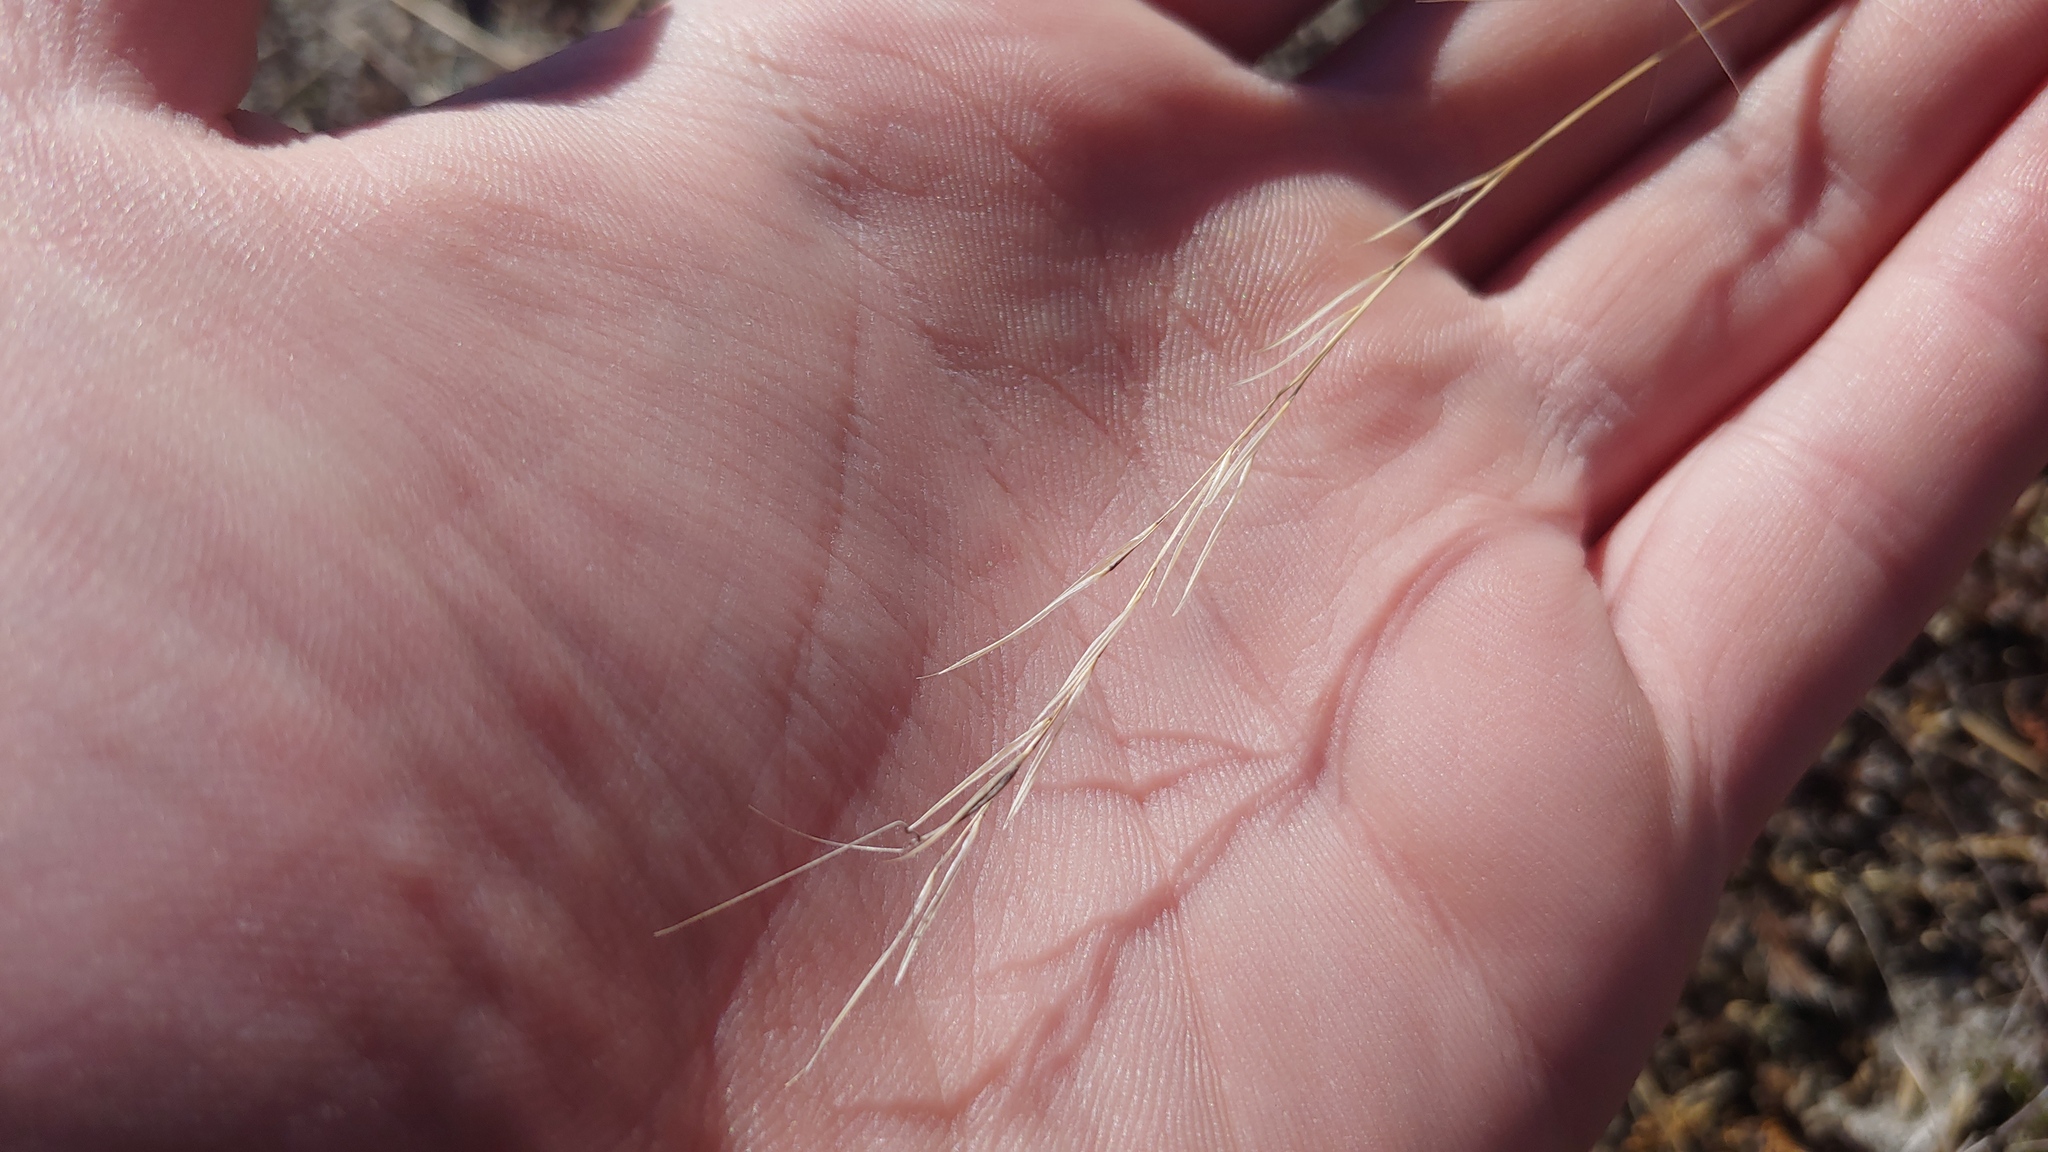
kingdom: Plantae
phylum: Tracheophyta
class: Liliopsida
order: Poales
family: Poaceae
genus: Aristida
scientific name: Aristida dichotoma
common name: Churchmouse three-awn
